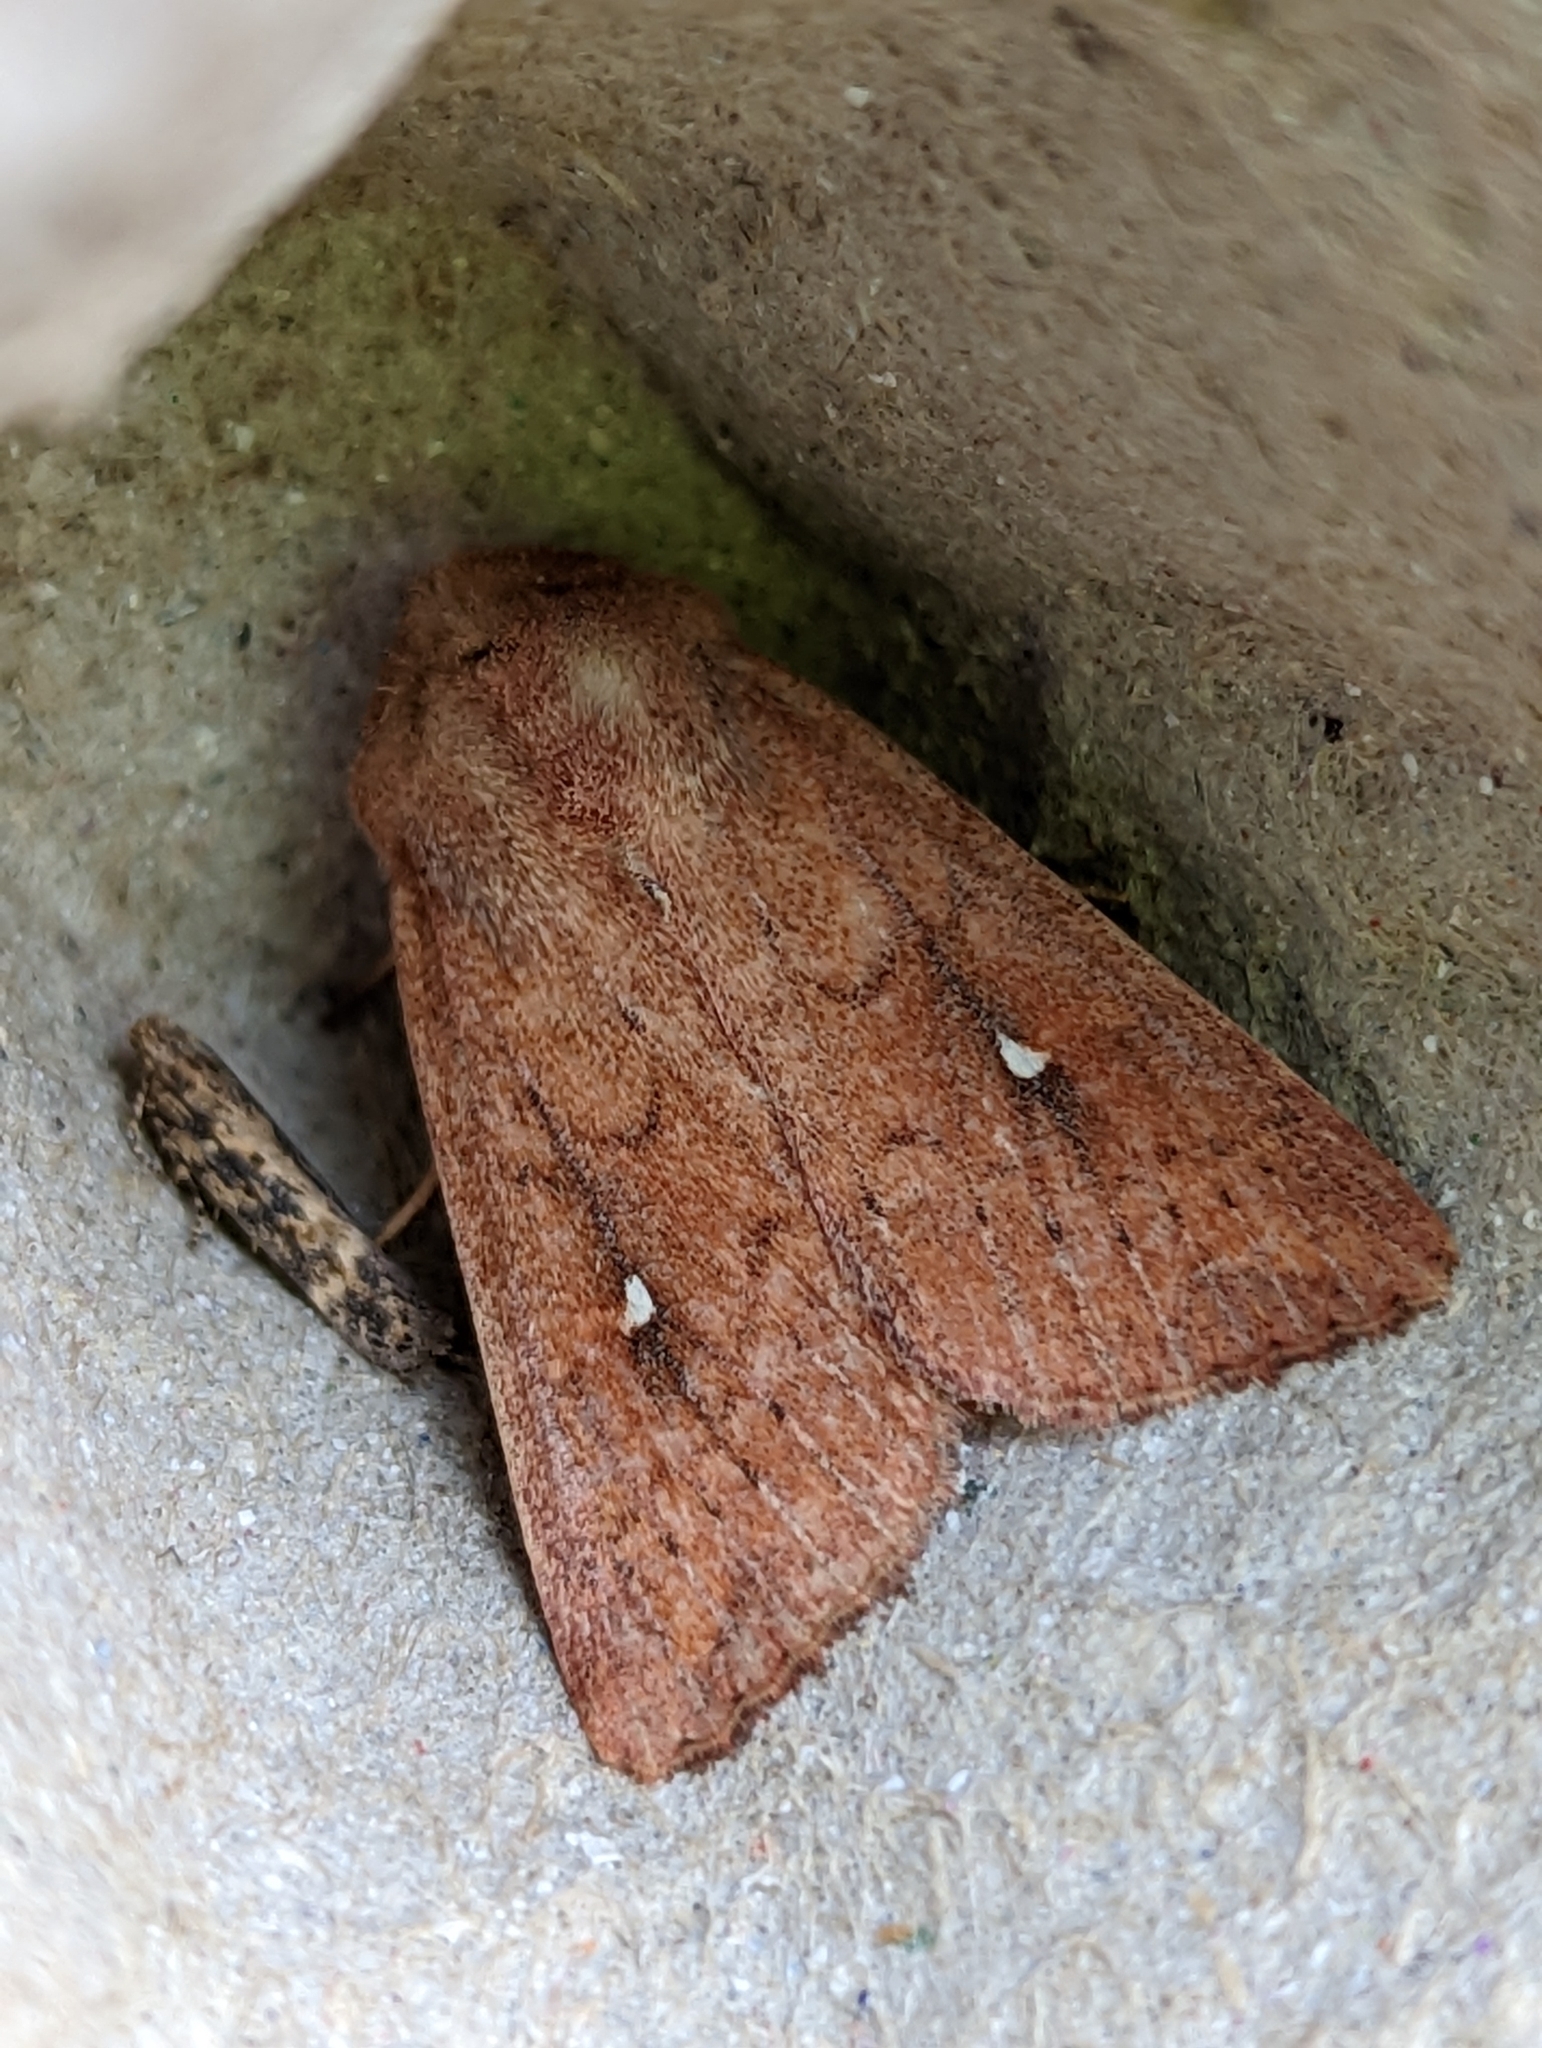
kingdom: Animalia
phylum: Arthropoda
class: Insecta
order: Lepidoptera
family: Noctuidae
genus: Mythimna
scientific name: Mythimna albipuncta
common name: White-point
